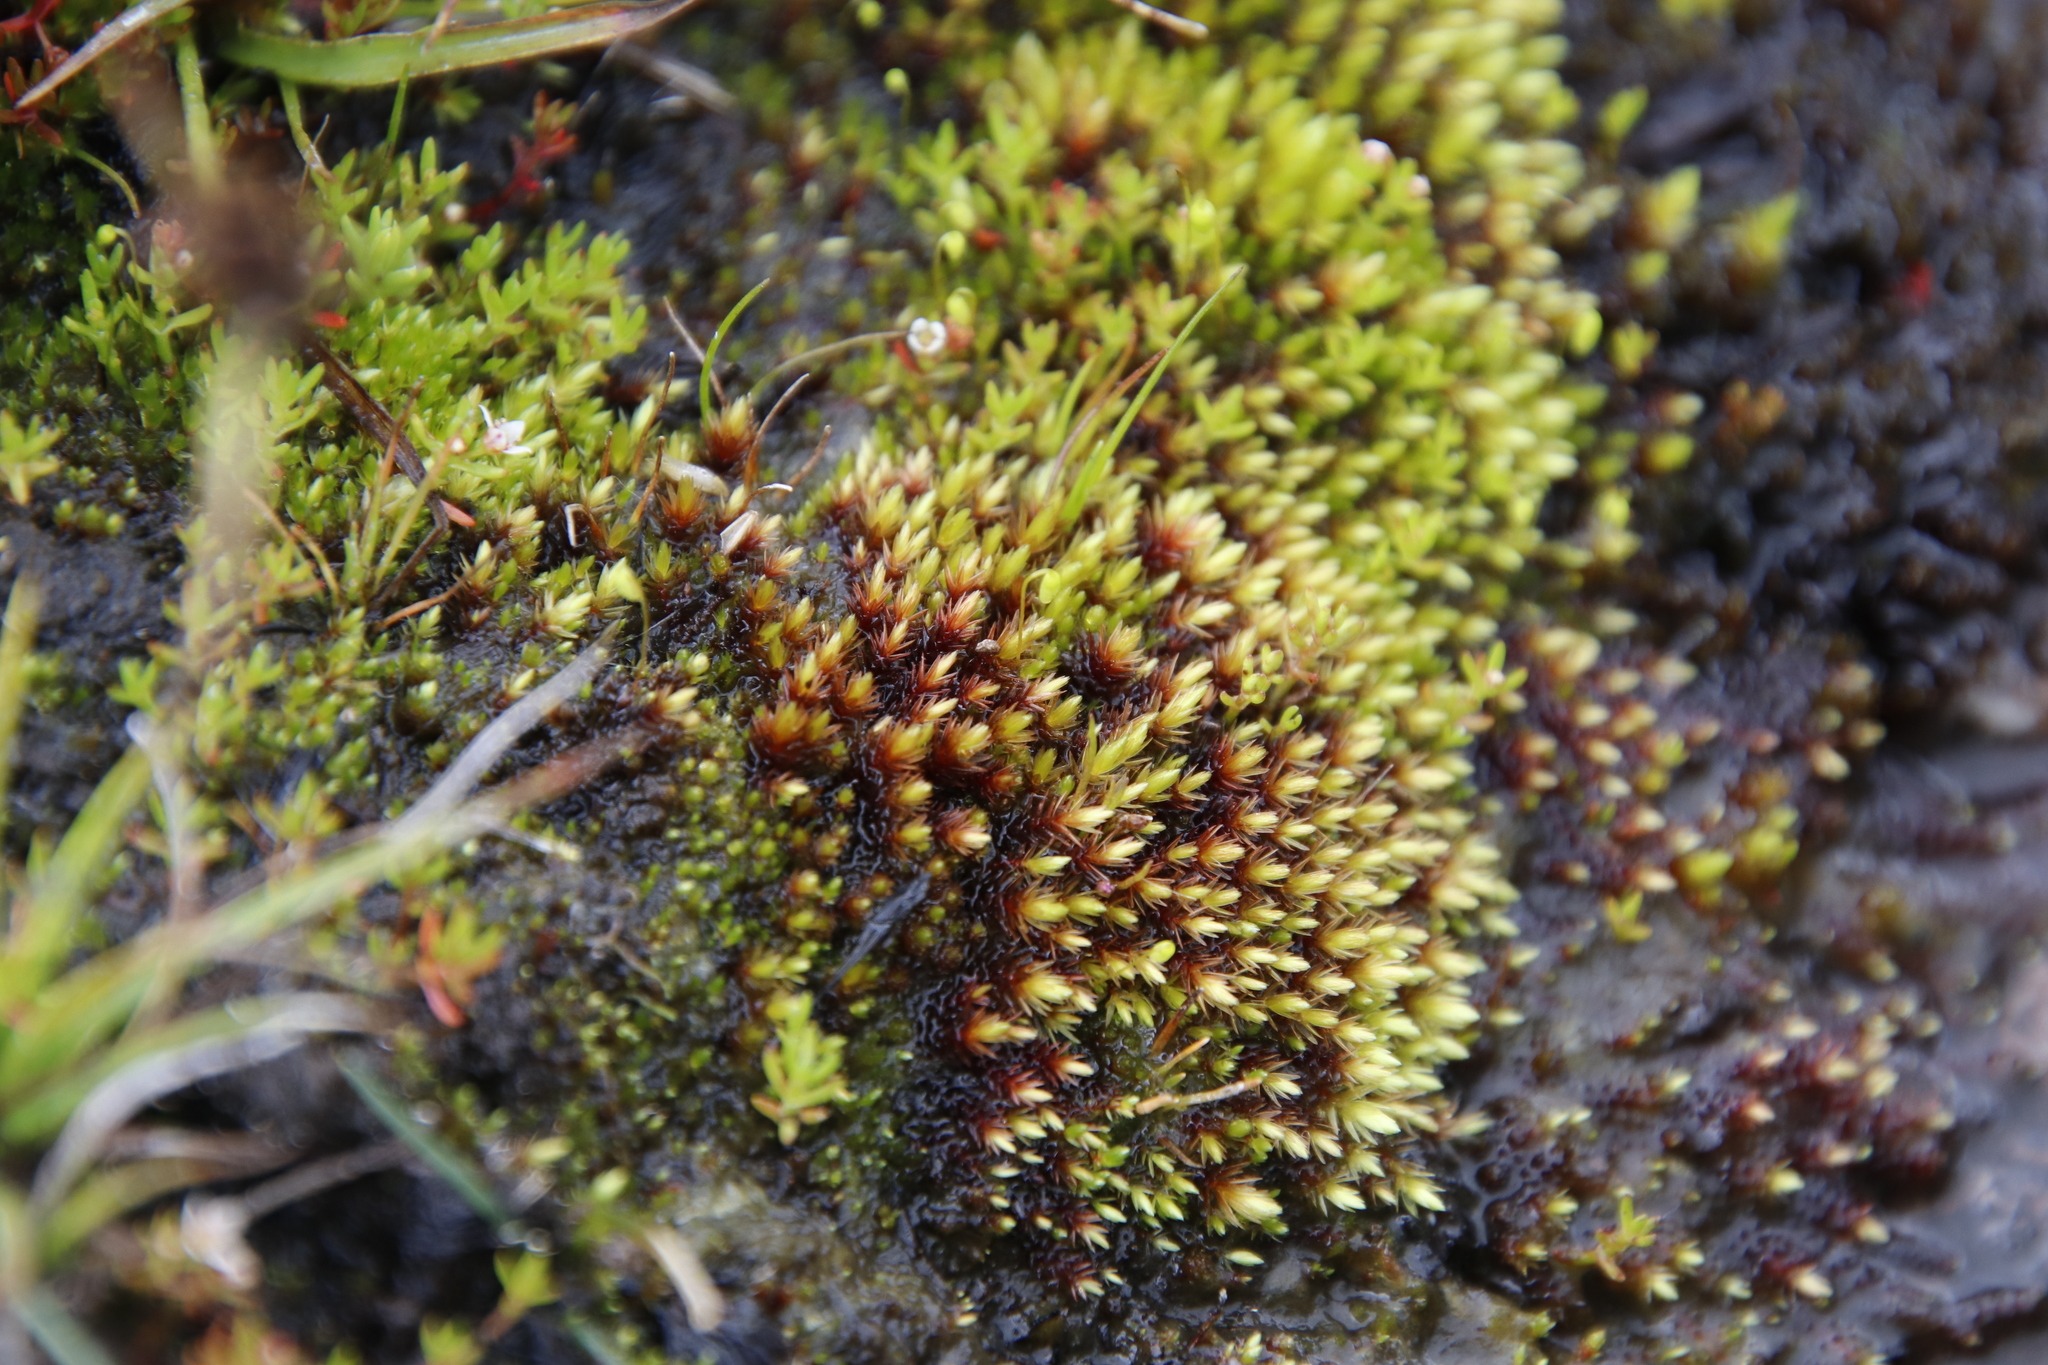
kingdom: Plantae
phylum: Bryophyta
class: Bryopsida
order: Bryales
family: Bryaceae
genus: Imbribryum
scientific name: Imbribryum alpinum
